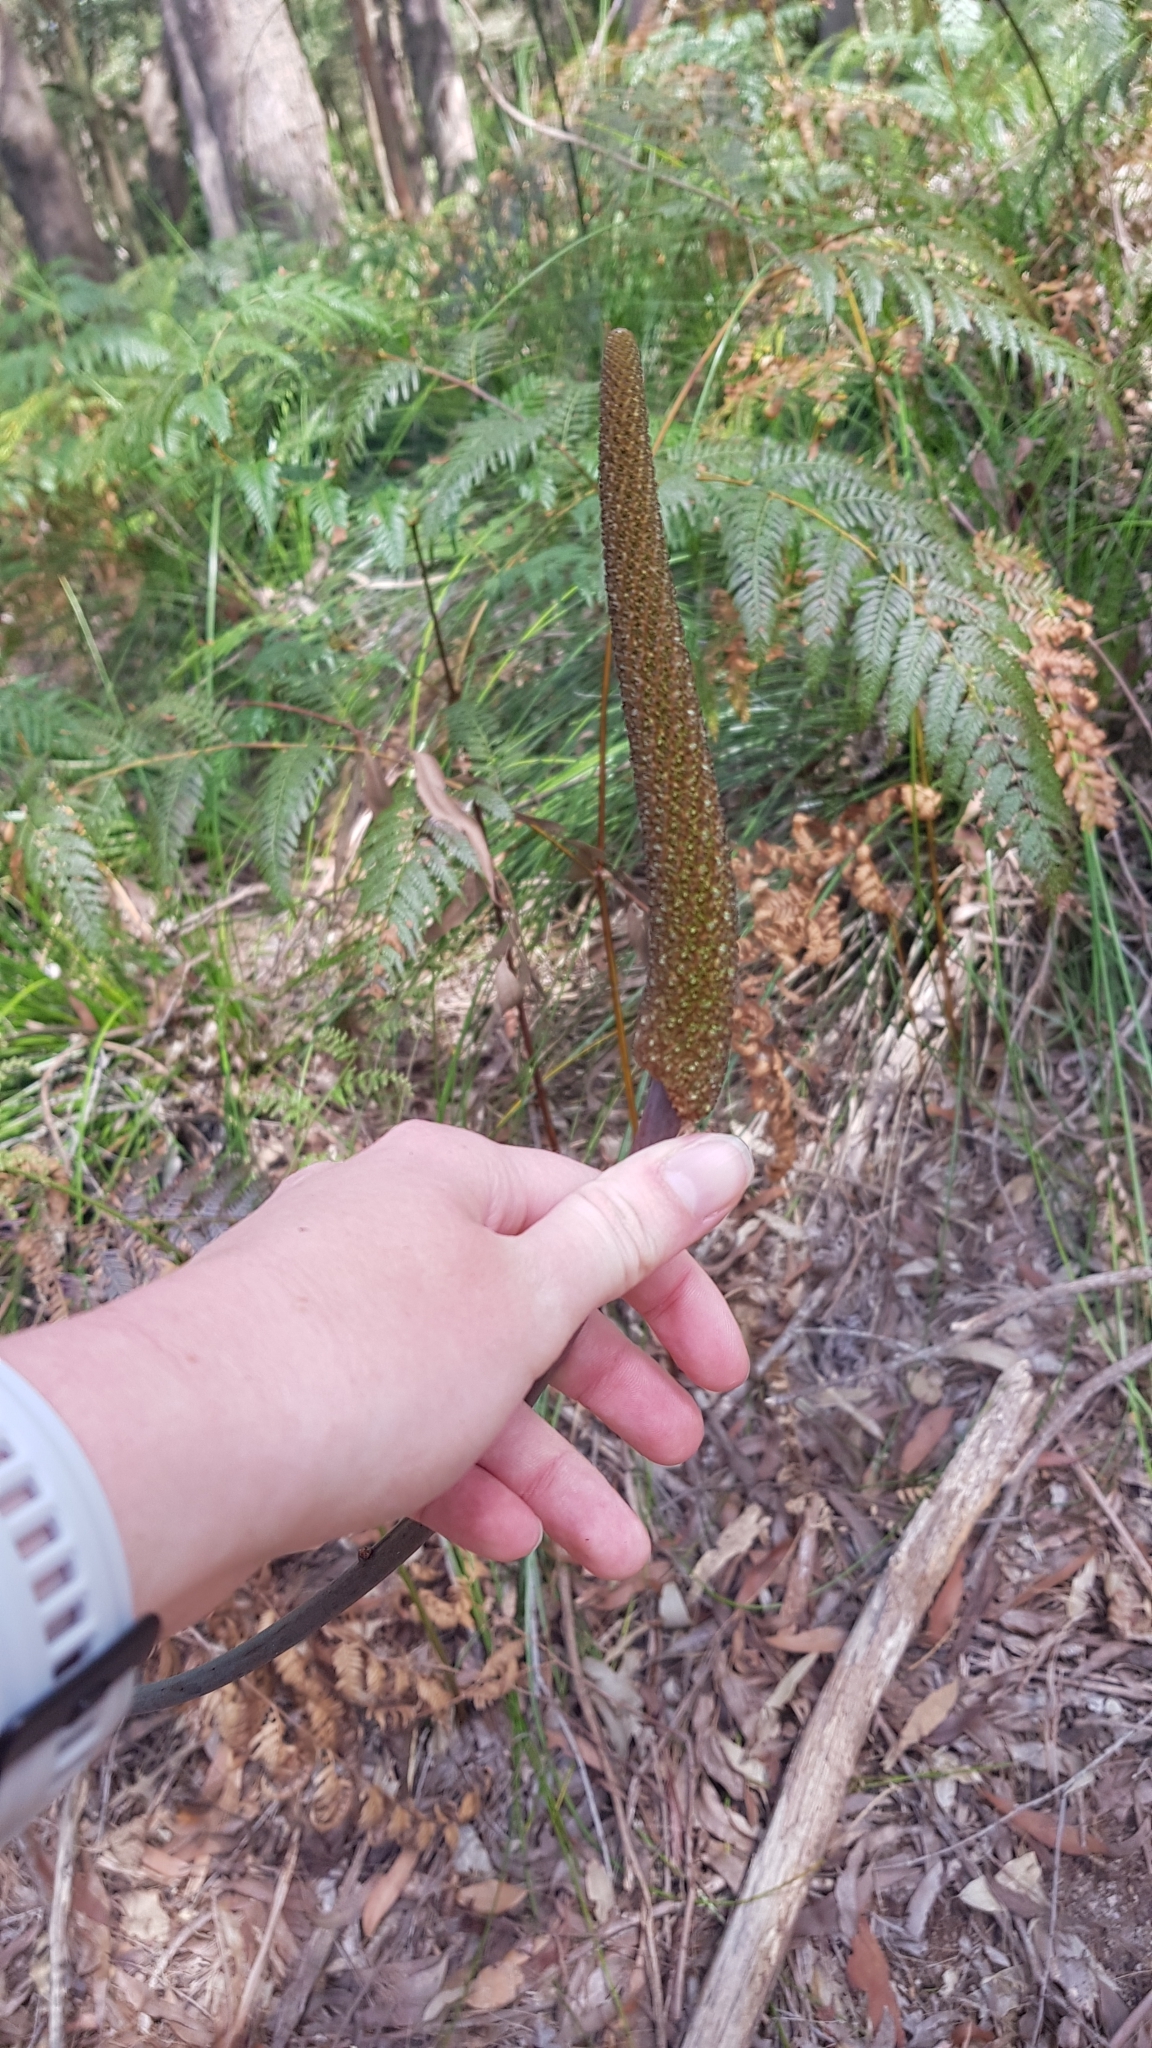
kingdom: Plantae
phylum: Tracheophyta
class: Liliopsida
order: Asparagales
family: Asphodelaceae
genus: Xanthorrhoea
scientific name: Xanthorrhoea minor
